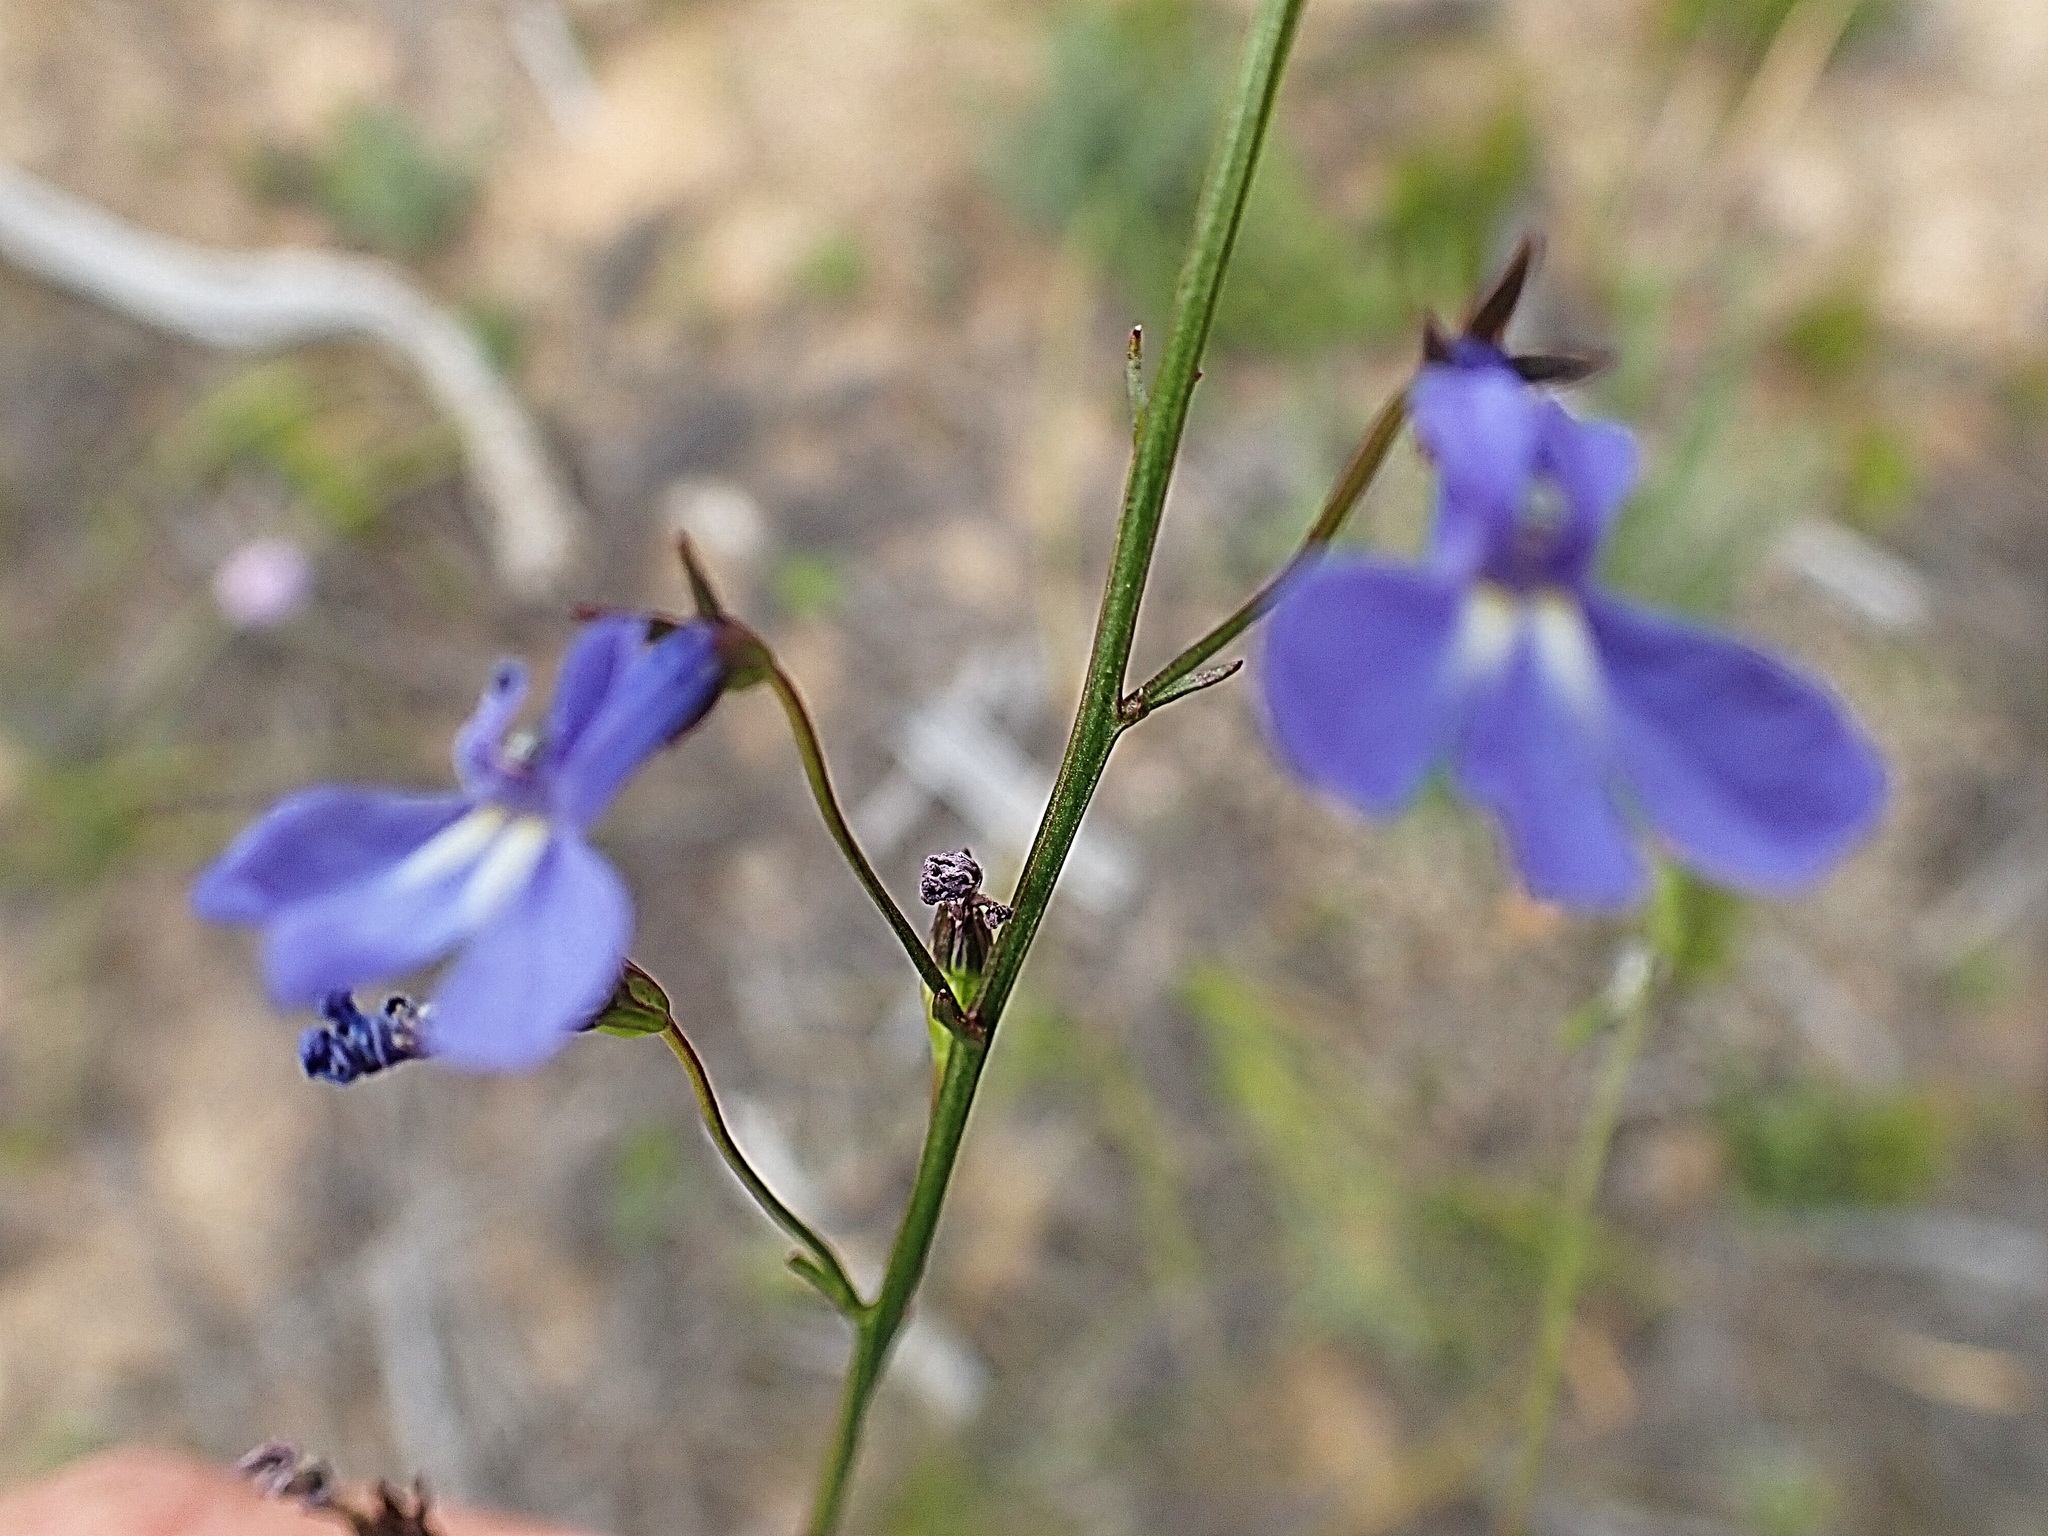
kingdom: Plantae
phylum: Tracheophyta
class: Magnoliopsida
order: Asterales
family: Campanulaceae
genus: Lobelia
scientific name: Lobelia erinus
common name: Edging lobelia
